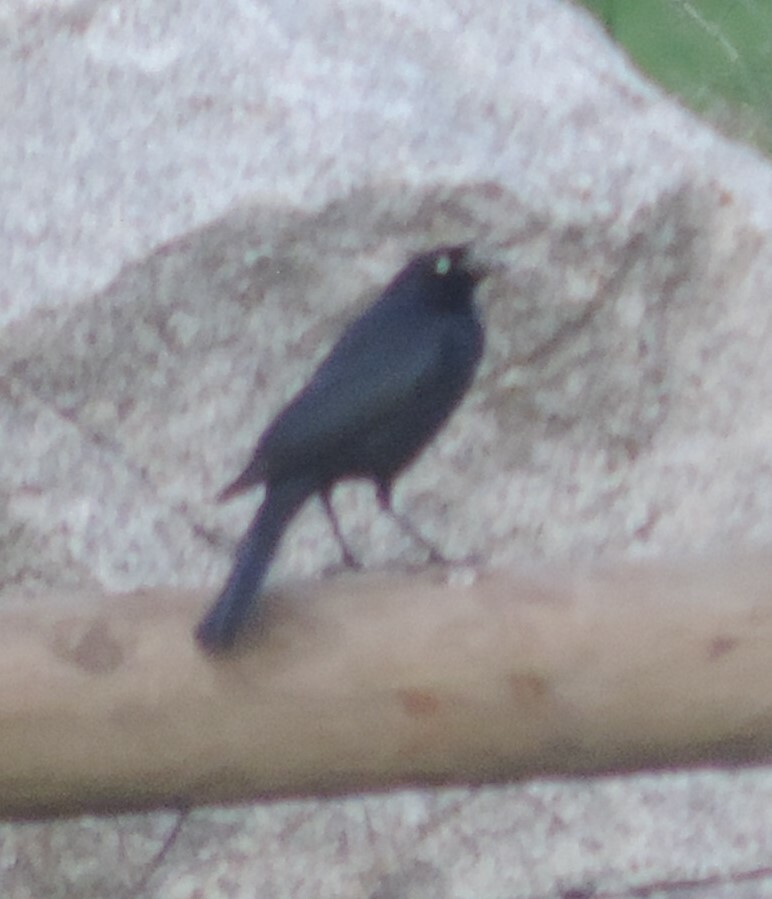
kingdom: Animalia
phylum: Chordata
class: Aves
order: Passeriformes
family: Icteridae
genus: Euphagus
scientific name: Euphagus cyanocephalus
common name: Brewer's blackbird
